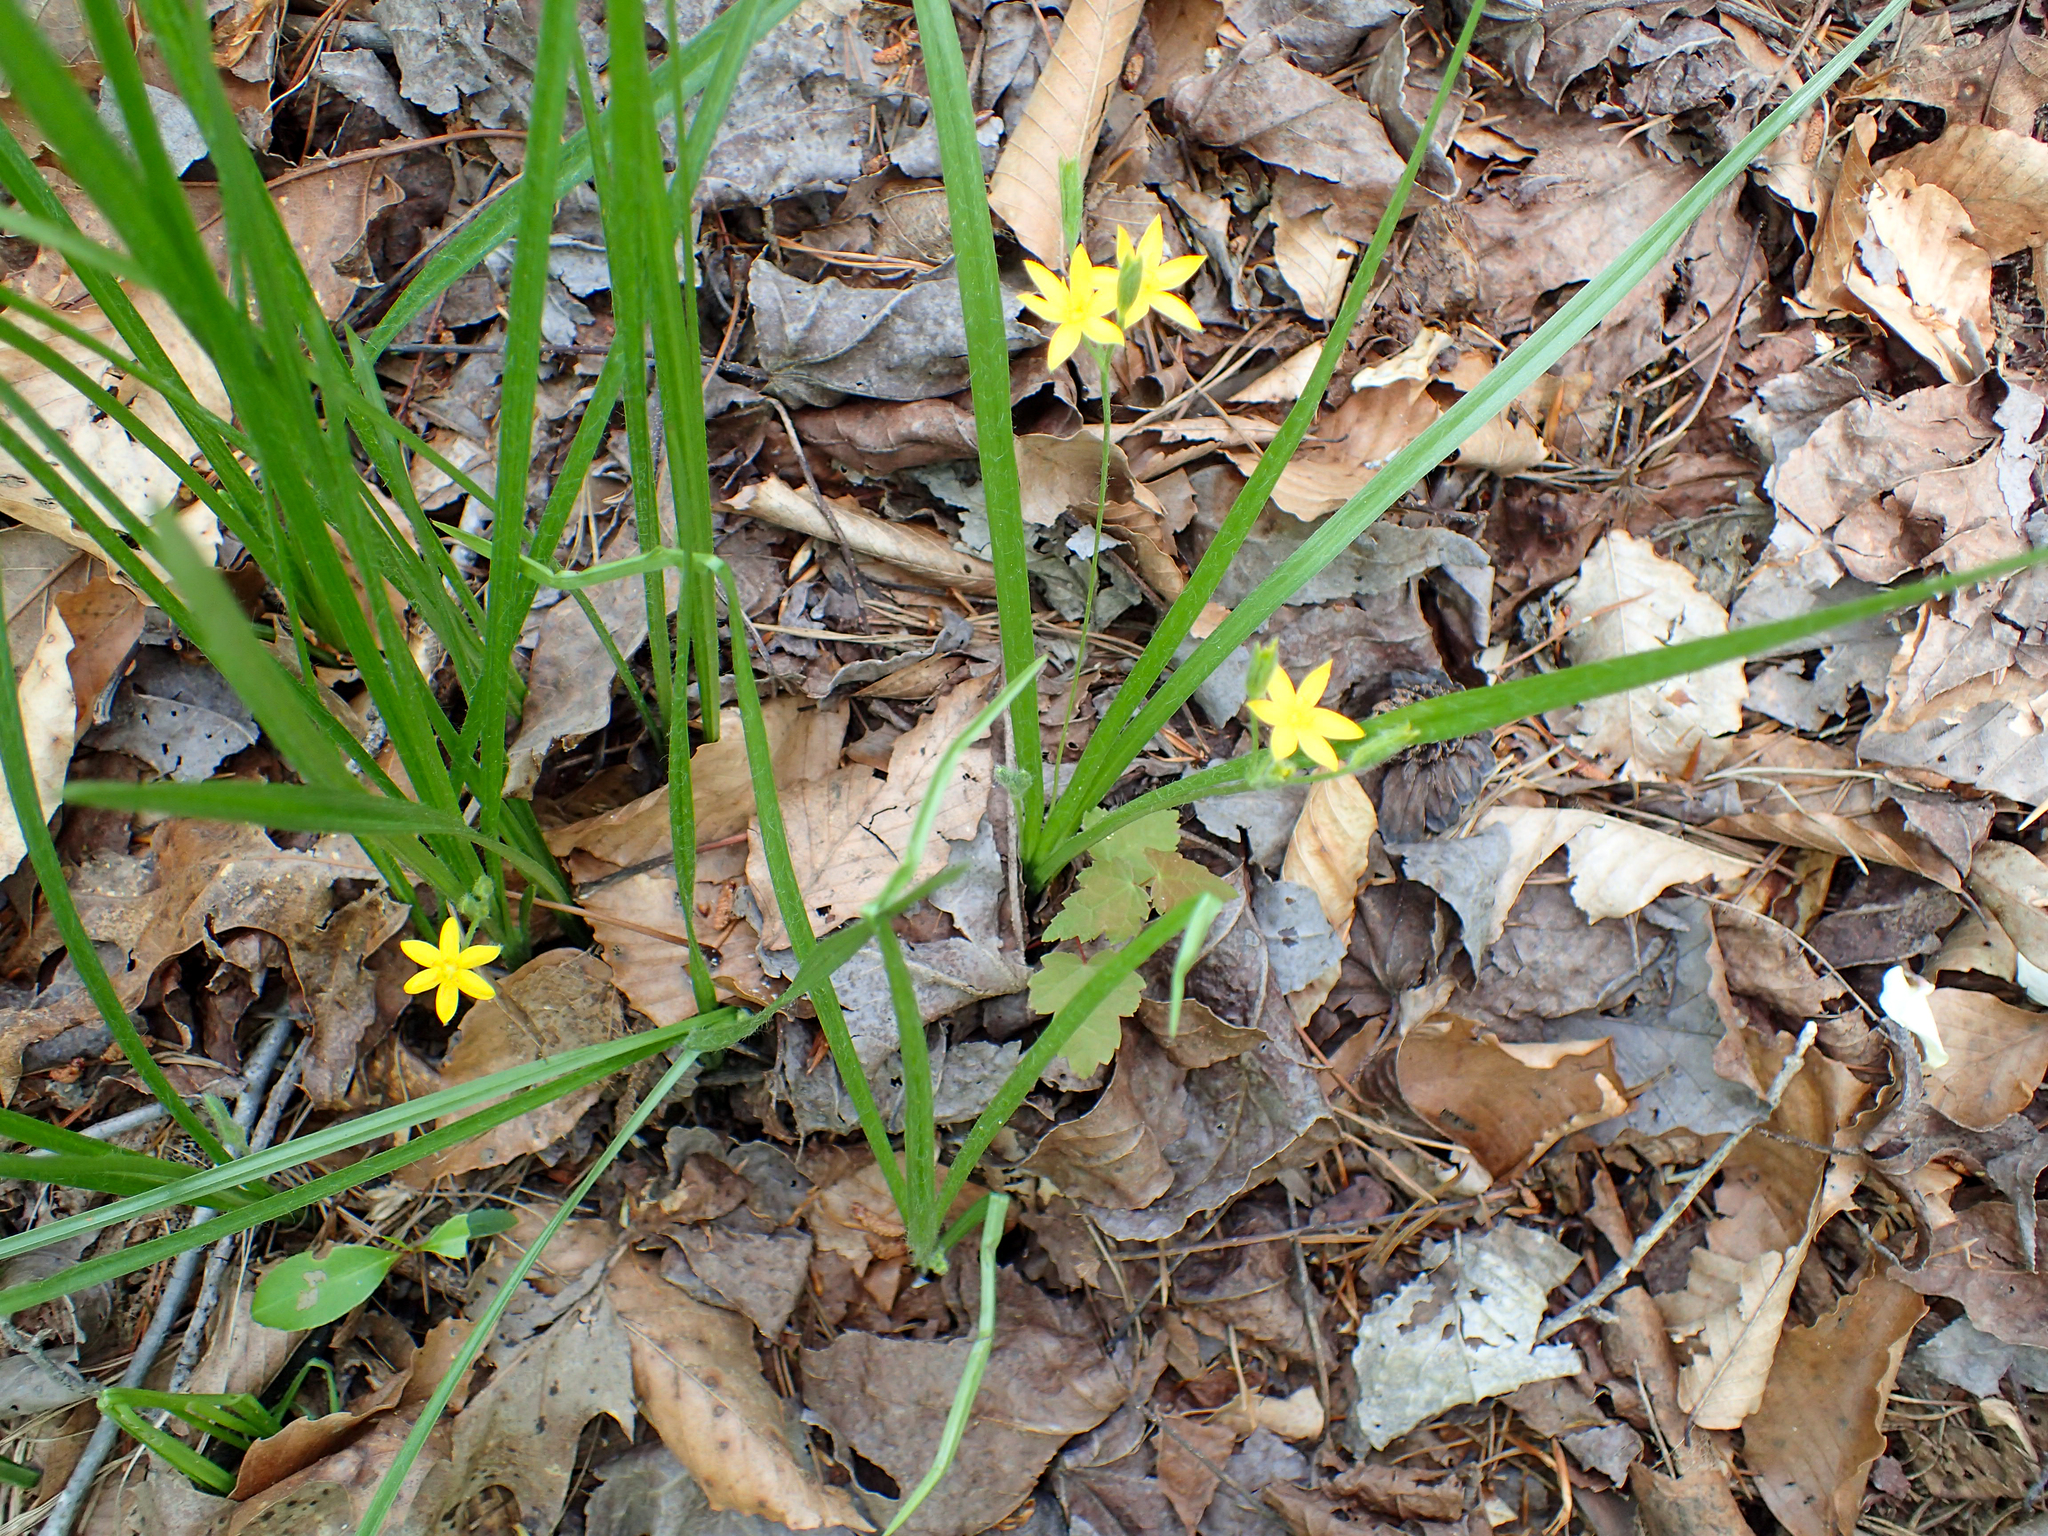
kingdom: Plantae
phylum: Tracheophyta
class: Liliopsida
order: Asparagales
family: Hypoxidaceae
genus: Hypoxis
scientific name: Hypoxis hirsuta
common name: Common goldstar
